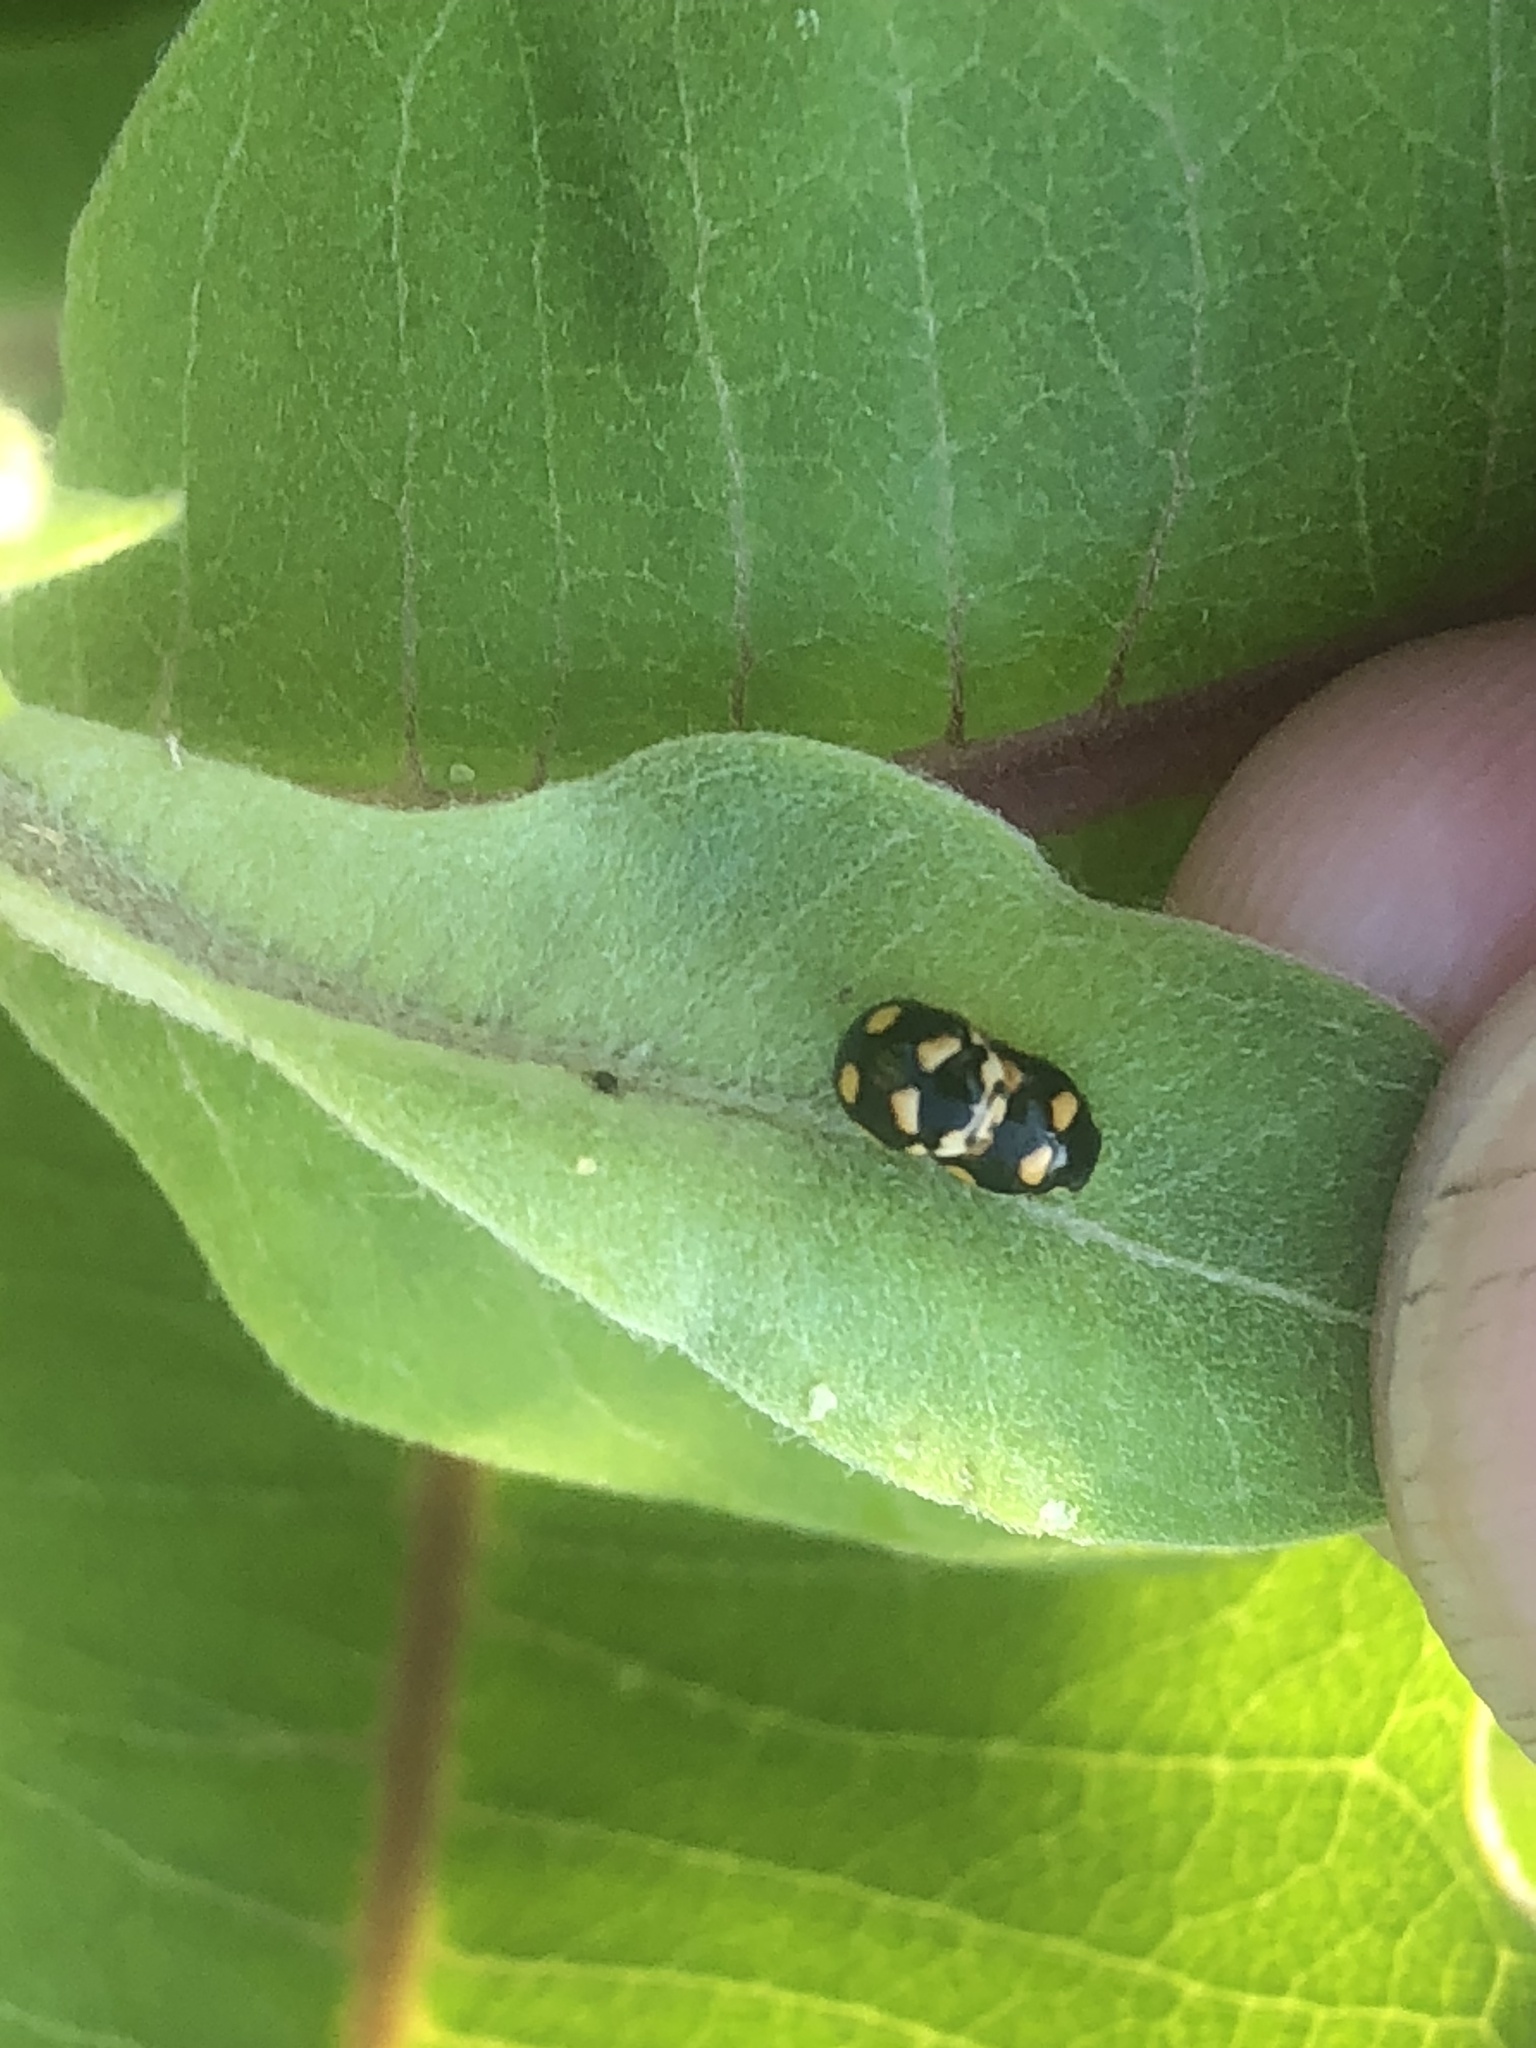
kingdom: Animalia
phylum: Arthropoda
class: Insecta
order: Coleoptera
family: Coccinellidae
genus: Brachiacantha
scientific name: Brachiacantha ursina
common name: Ursine spurleg lady beetle
